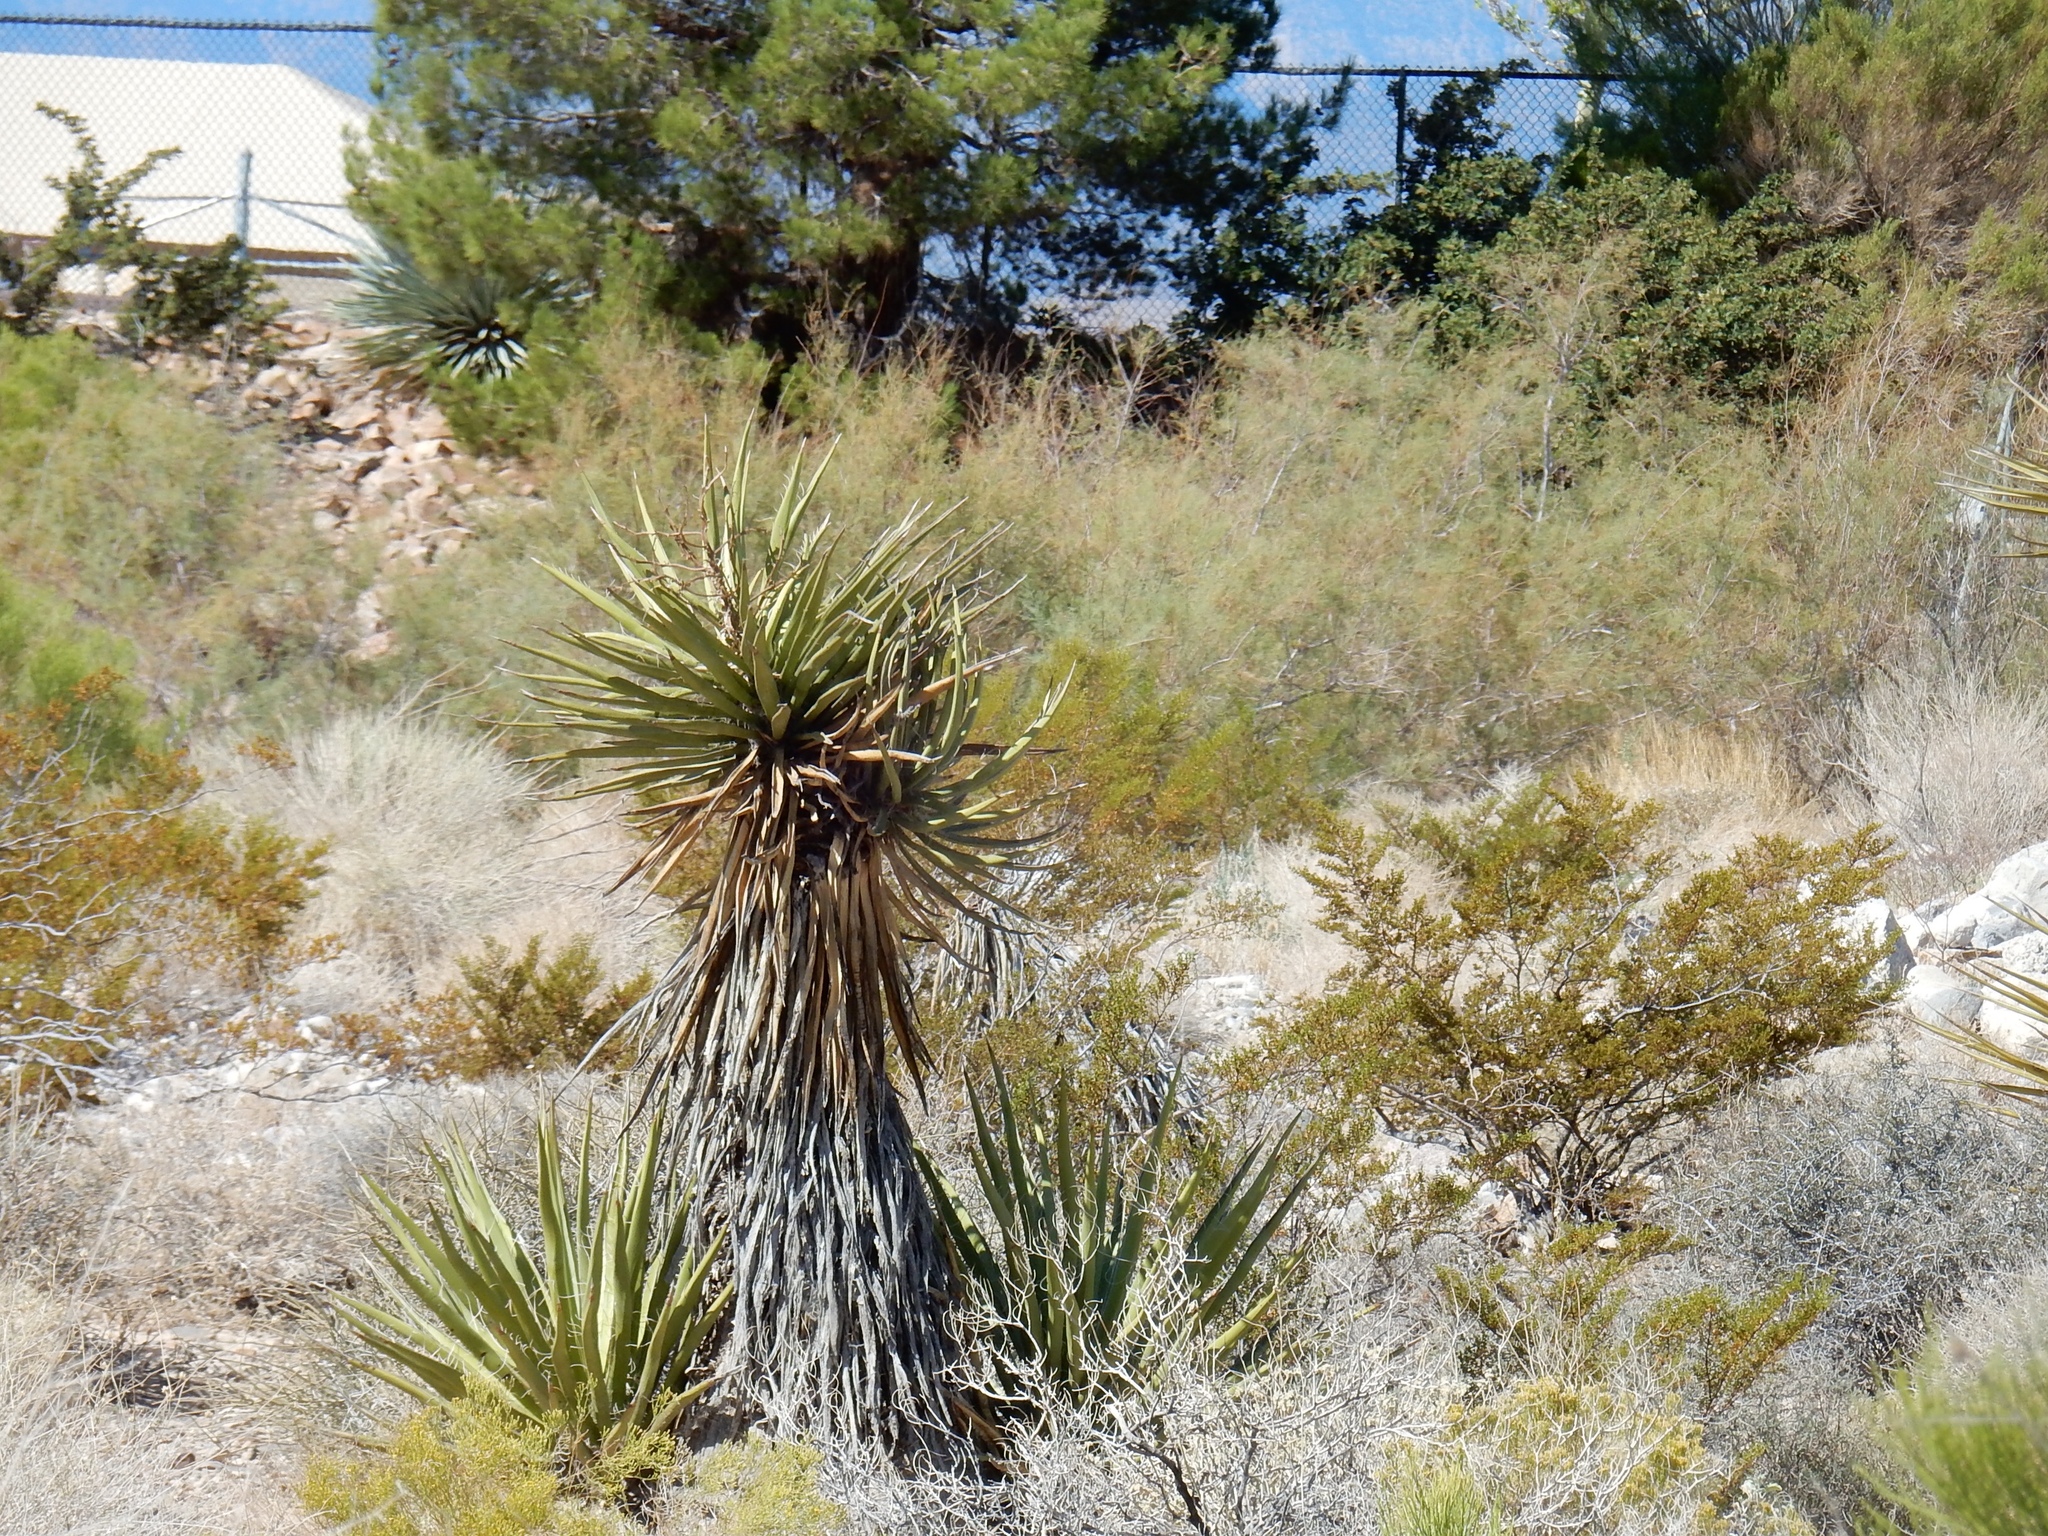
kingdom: Plantae
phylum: Tracheophyta
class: Liliopsida
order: Asparagales
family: Asparagaceae
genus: Yucca
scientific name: Yucca schidigera
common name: Mojave yucca
